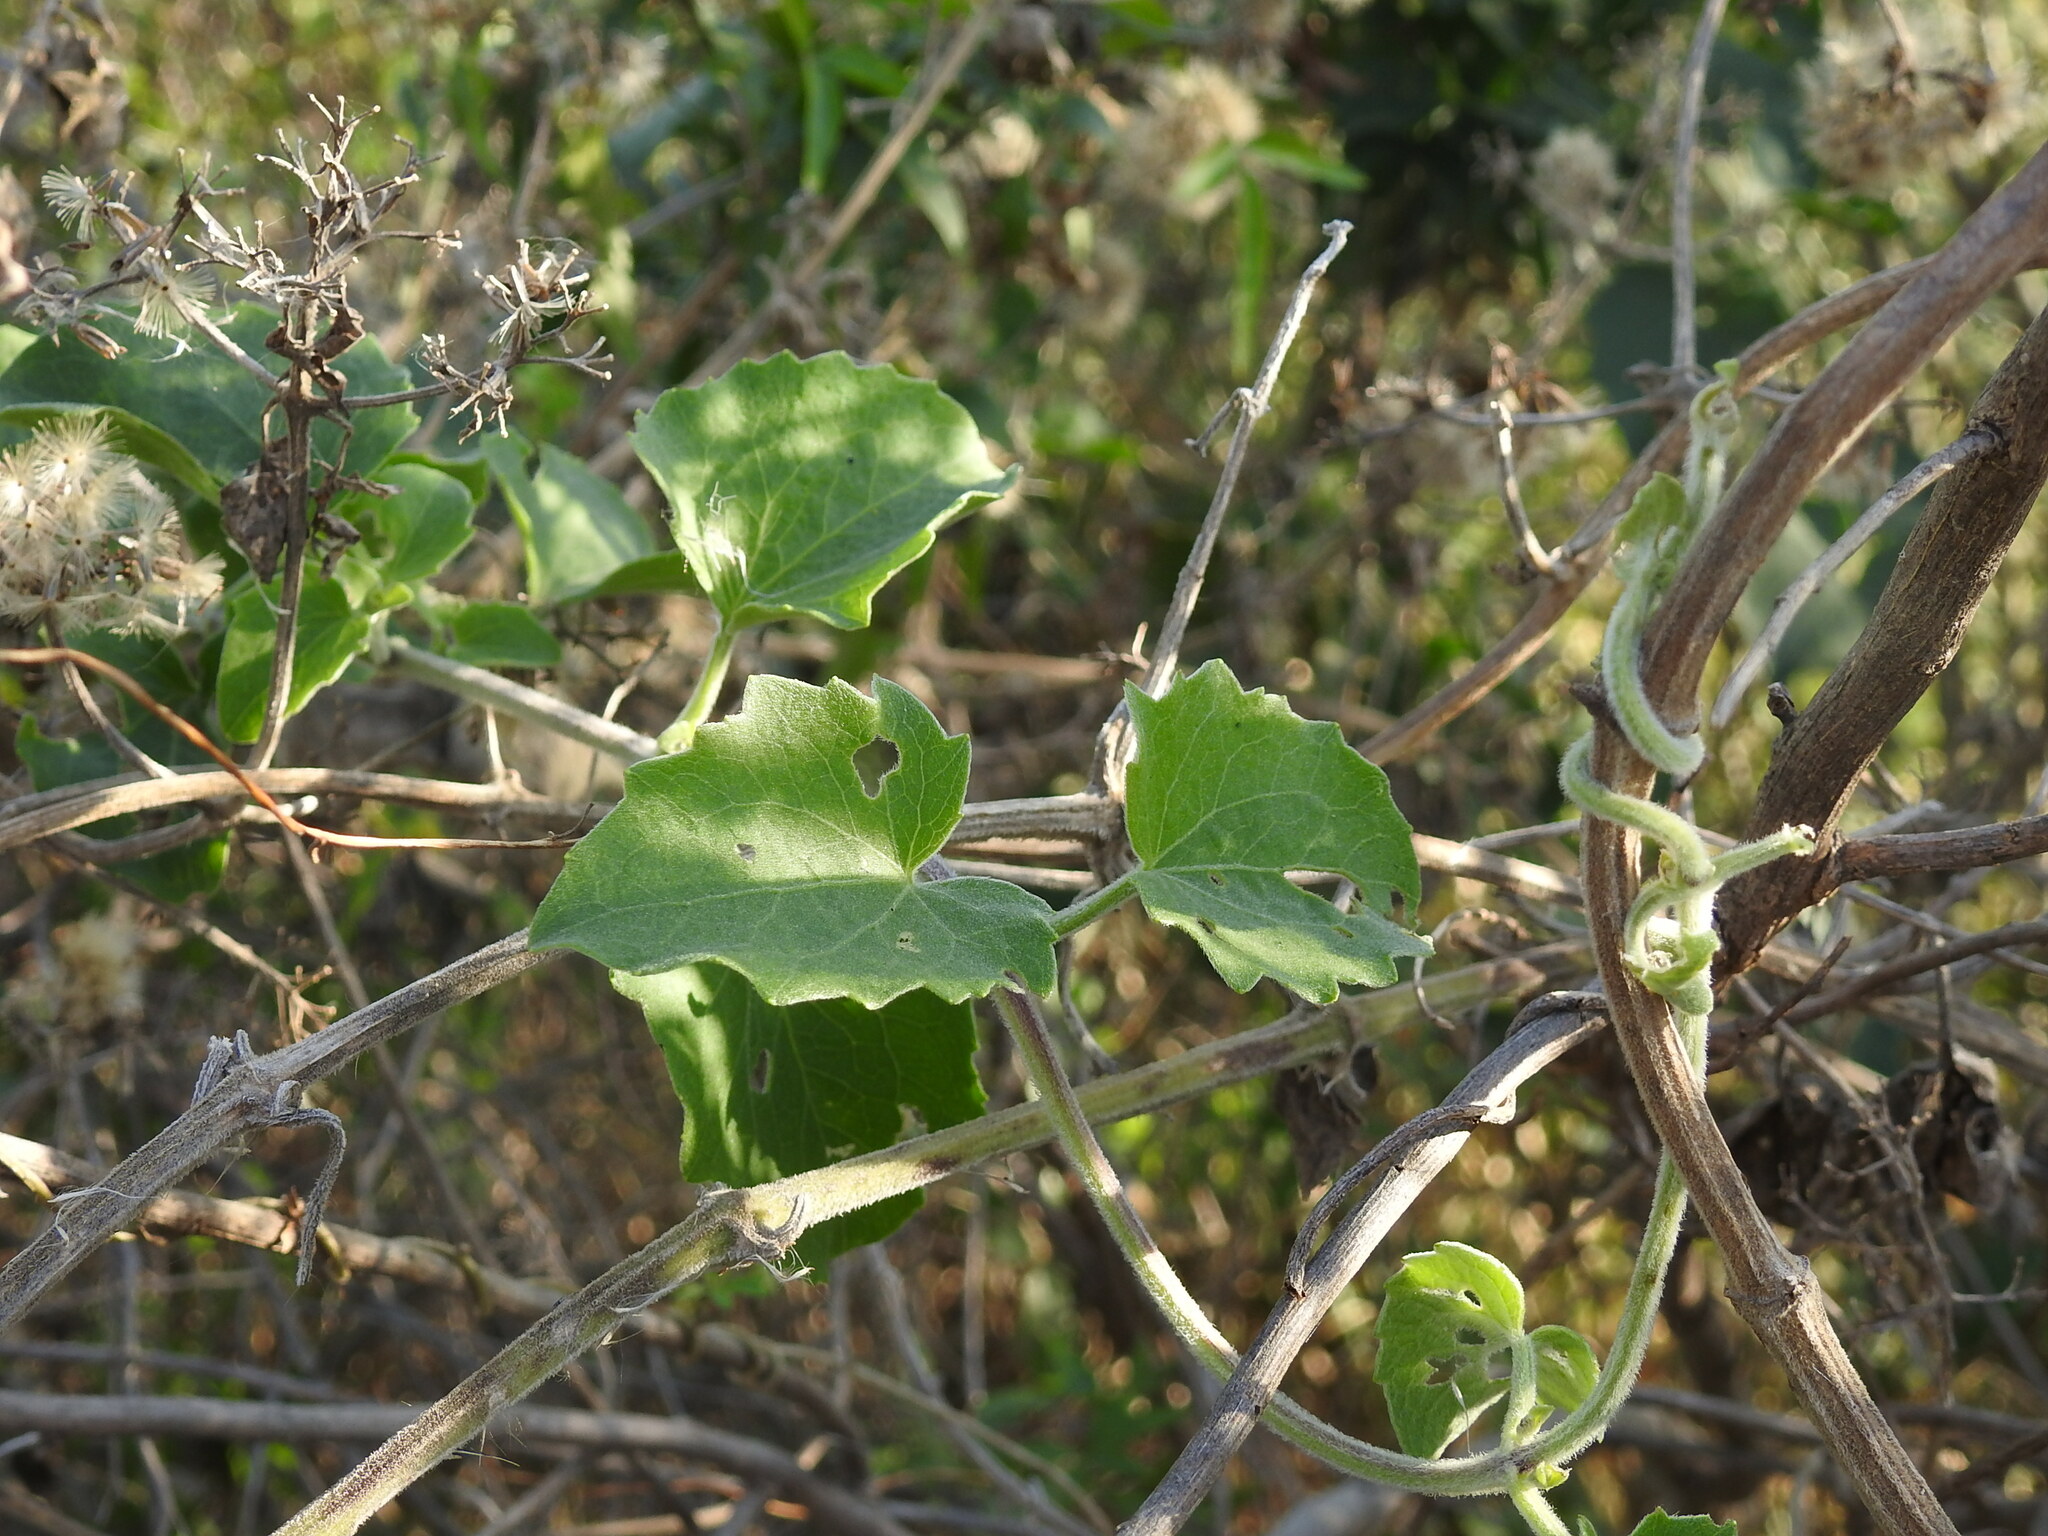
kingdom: Plantae
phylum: Tracheophyta
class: Magnoliopsida
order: Asterales
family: Asteraceae
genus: Mikania
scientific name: Mikania cordifolia
